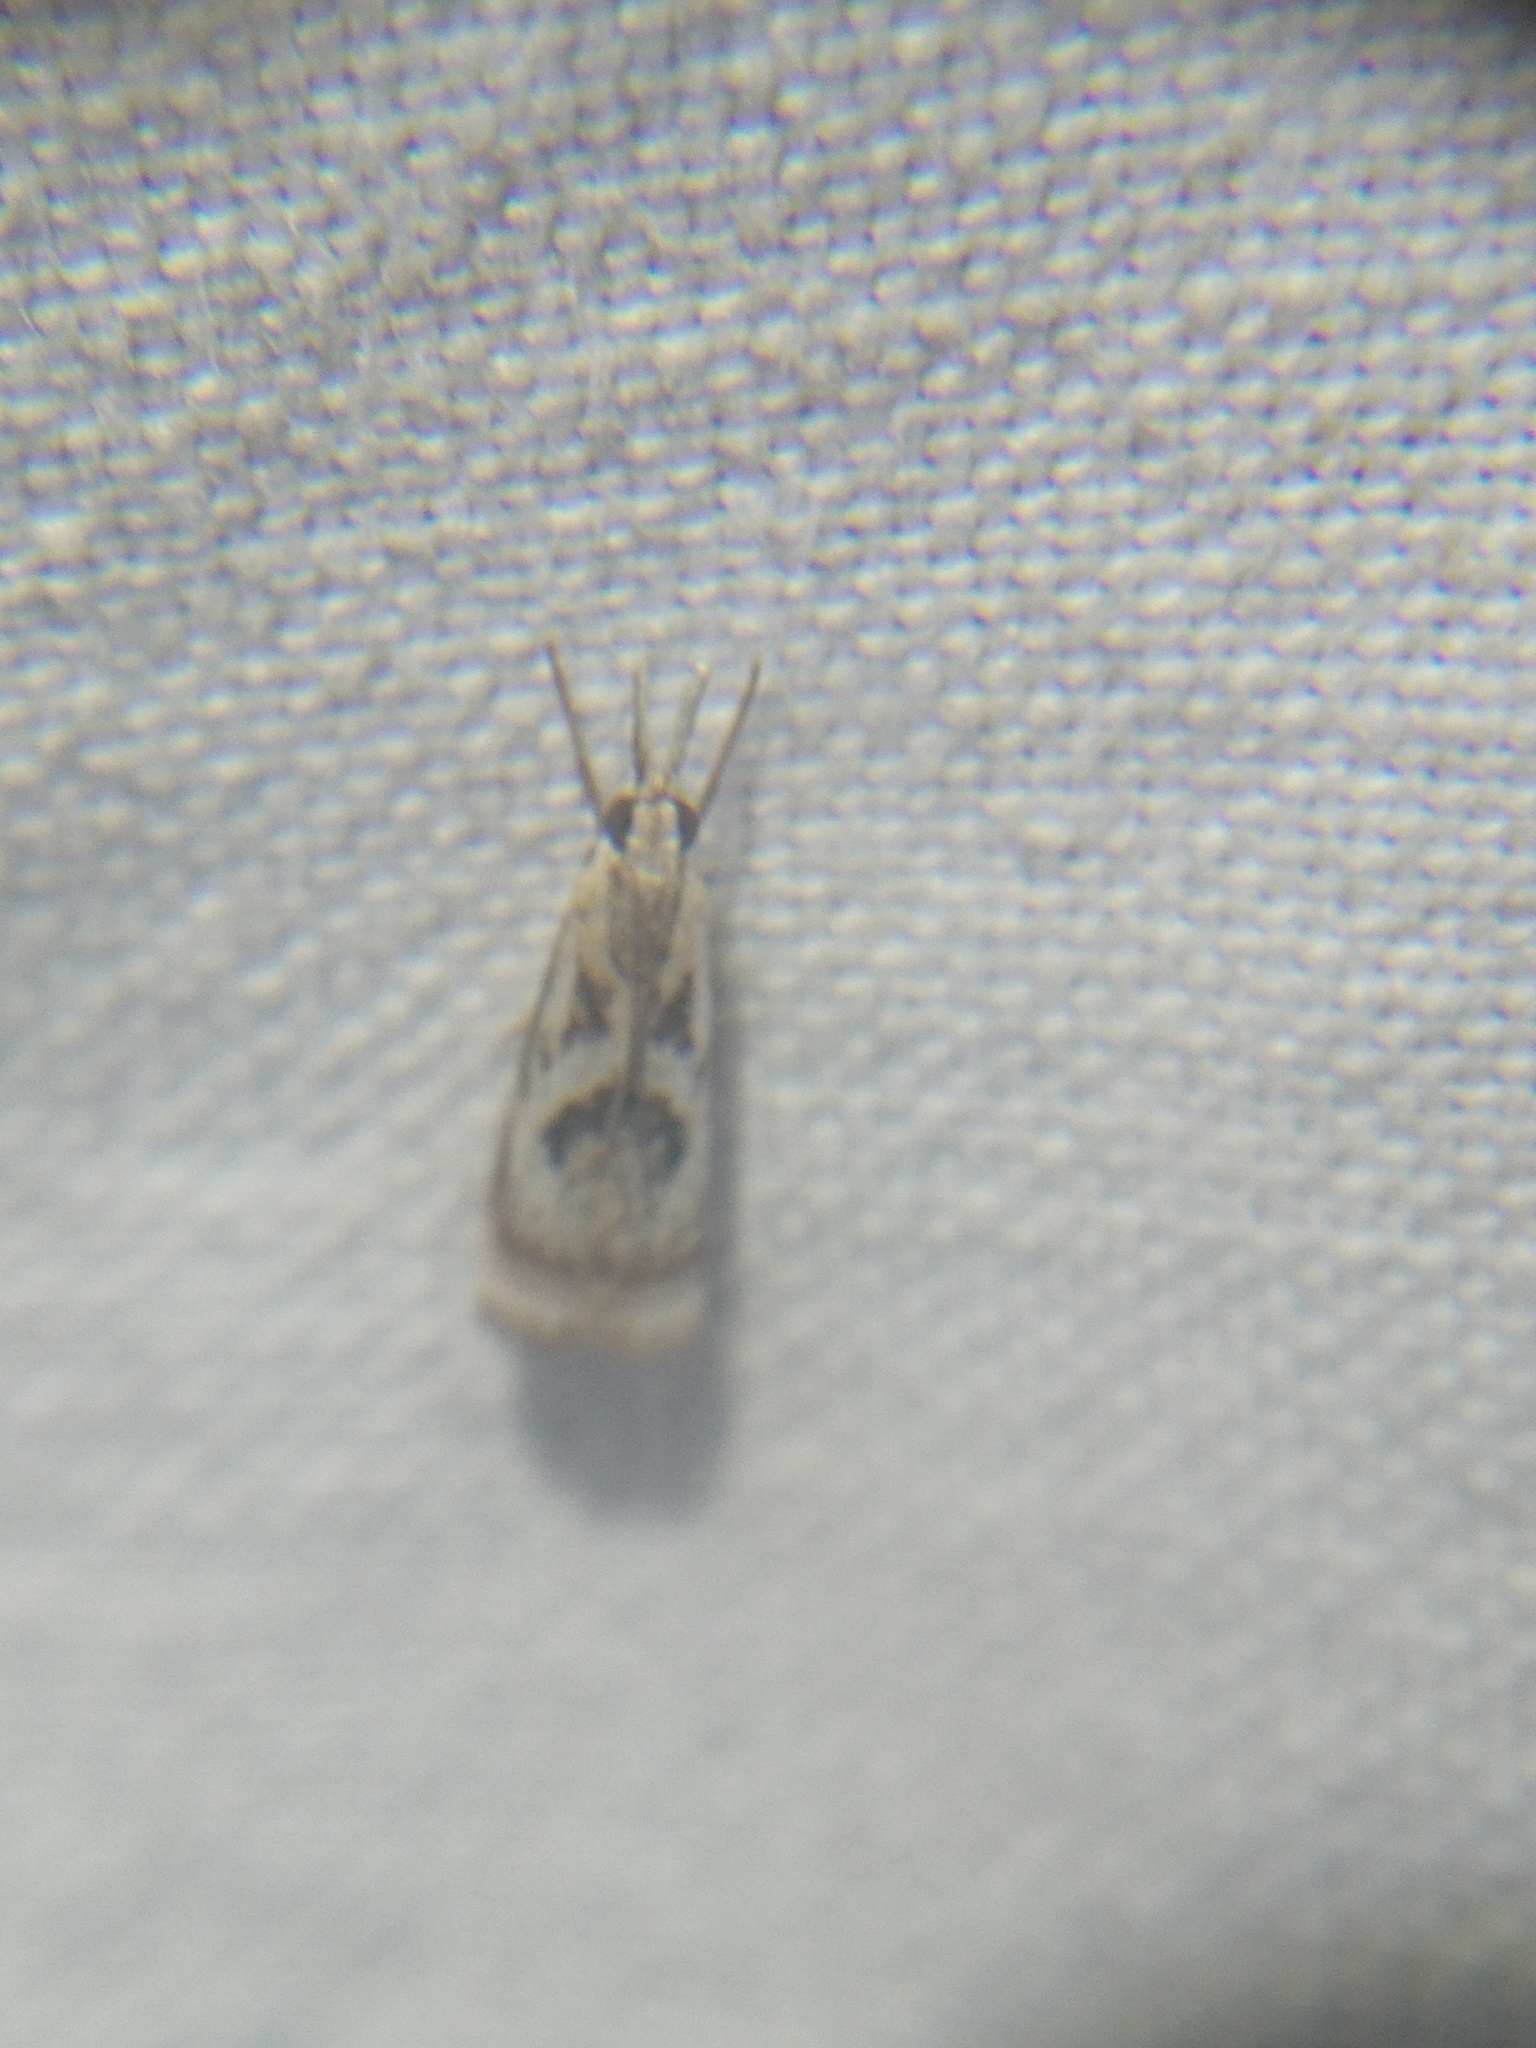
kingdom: Animalia
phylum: Arthropoda
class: Insecta
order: Lepidoptera
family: Crambidae
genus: Microcrambus
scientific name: Microcrambus elegans
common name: Elegant grass-veneer
